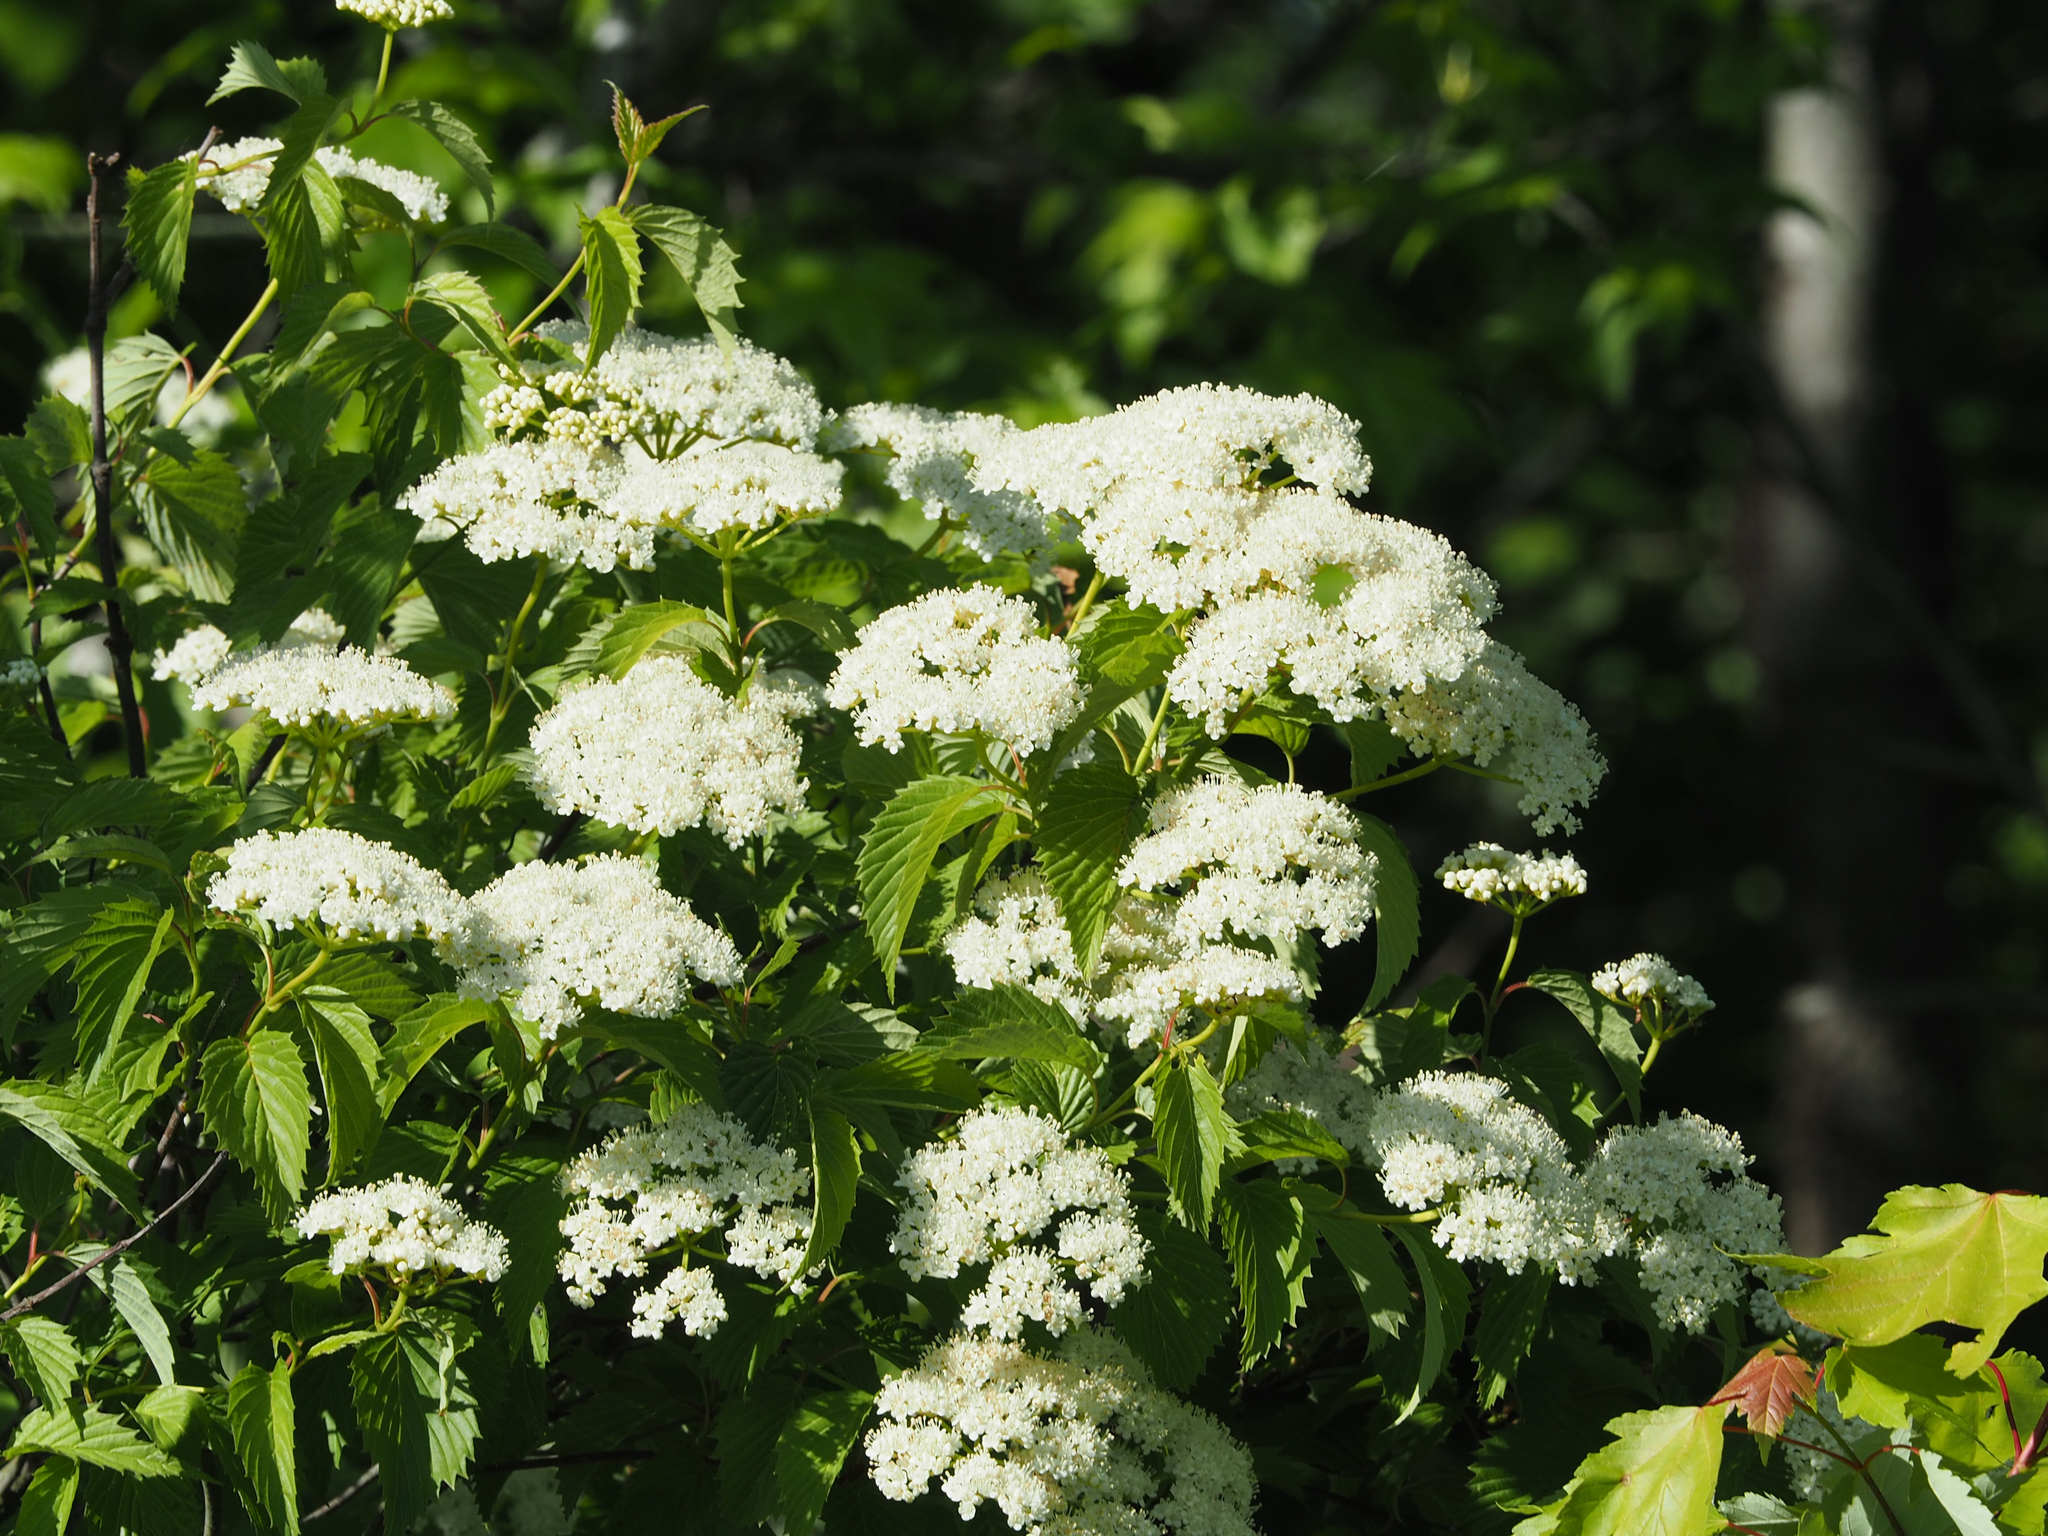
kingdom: Plantae
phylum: Tracheophyta
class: Magnoliopsida
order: Dipsacales
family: Viburnaceae
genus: Viburnum
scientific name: Viburnum dentatum
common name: Arrow-wood
